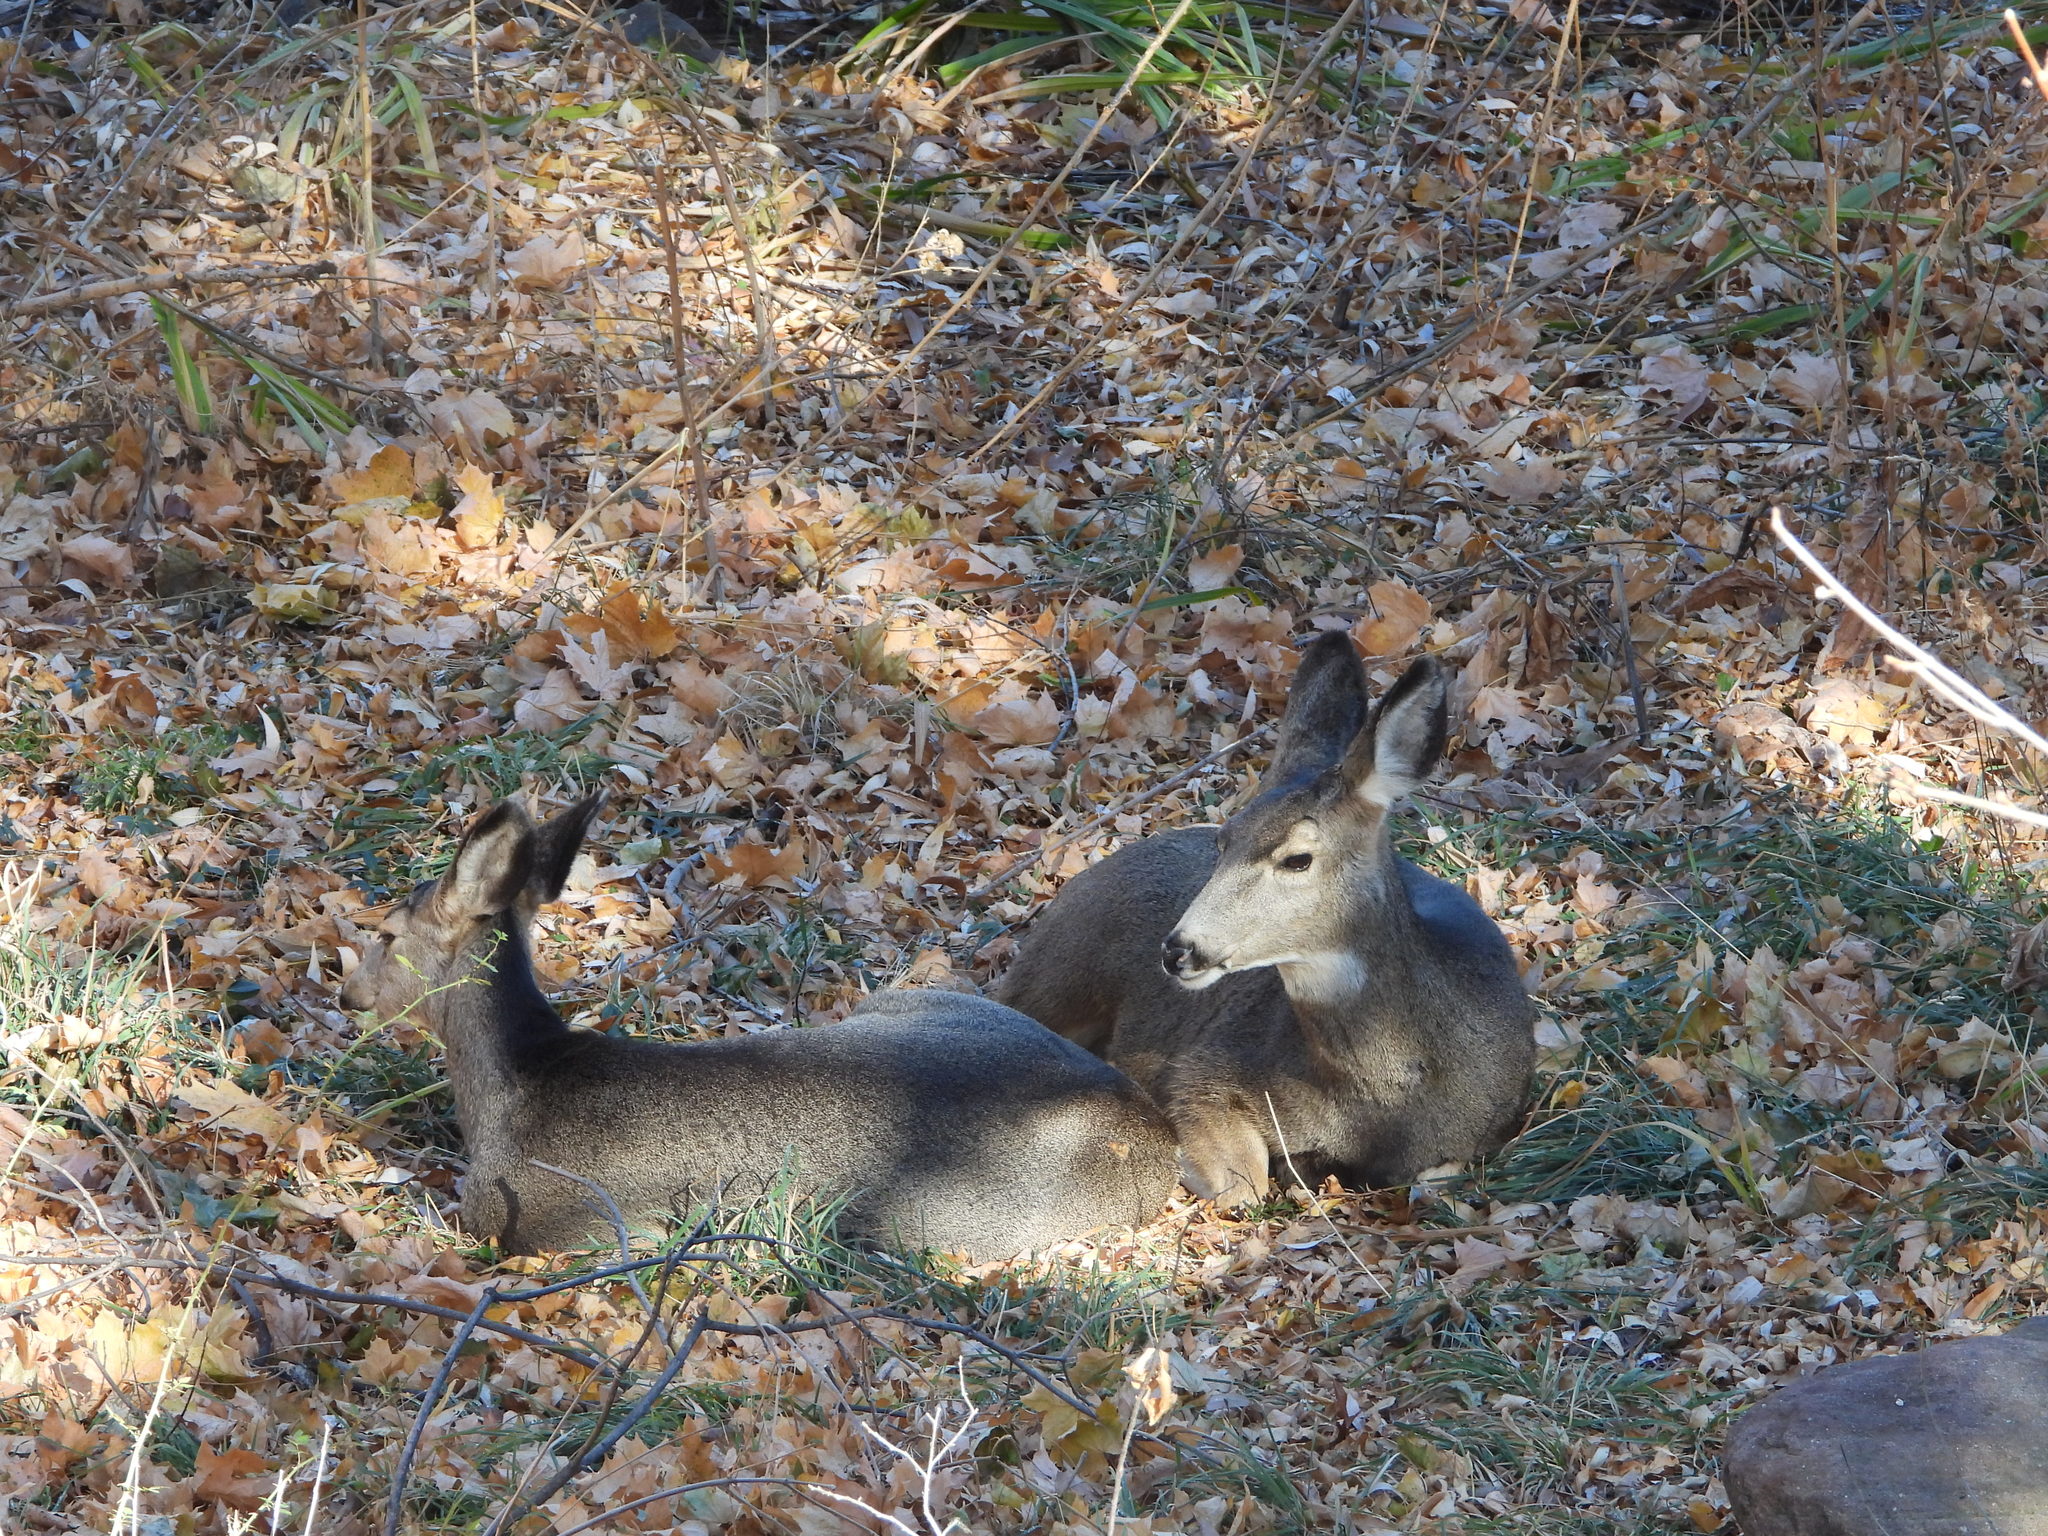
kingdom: Animalia
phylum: Chordata
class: Mammalia
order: Artiodactyla
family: Cervidae
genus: Odocoileus
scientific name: Odocoileus hemionus
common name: Mule deer
